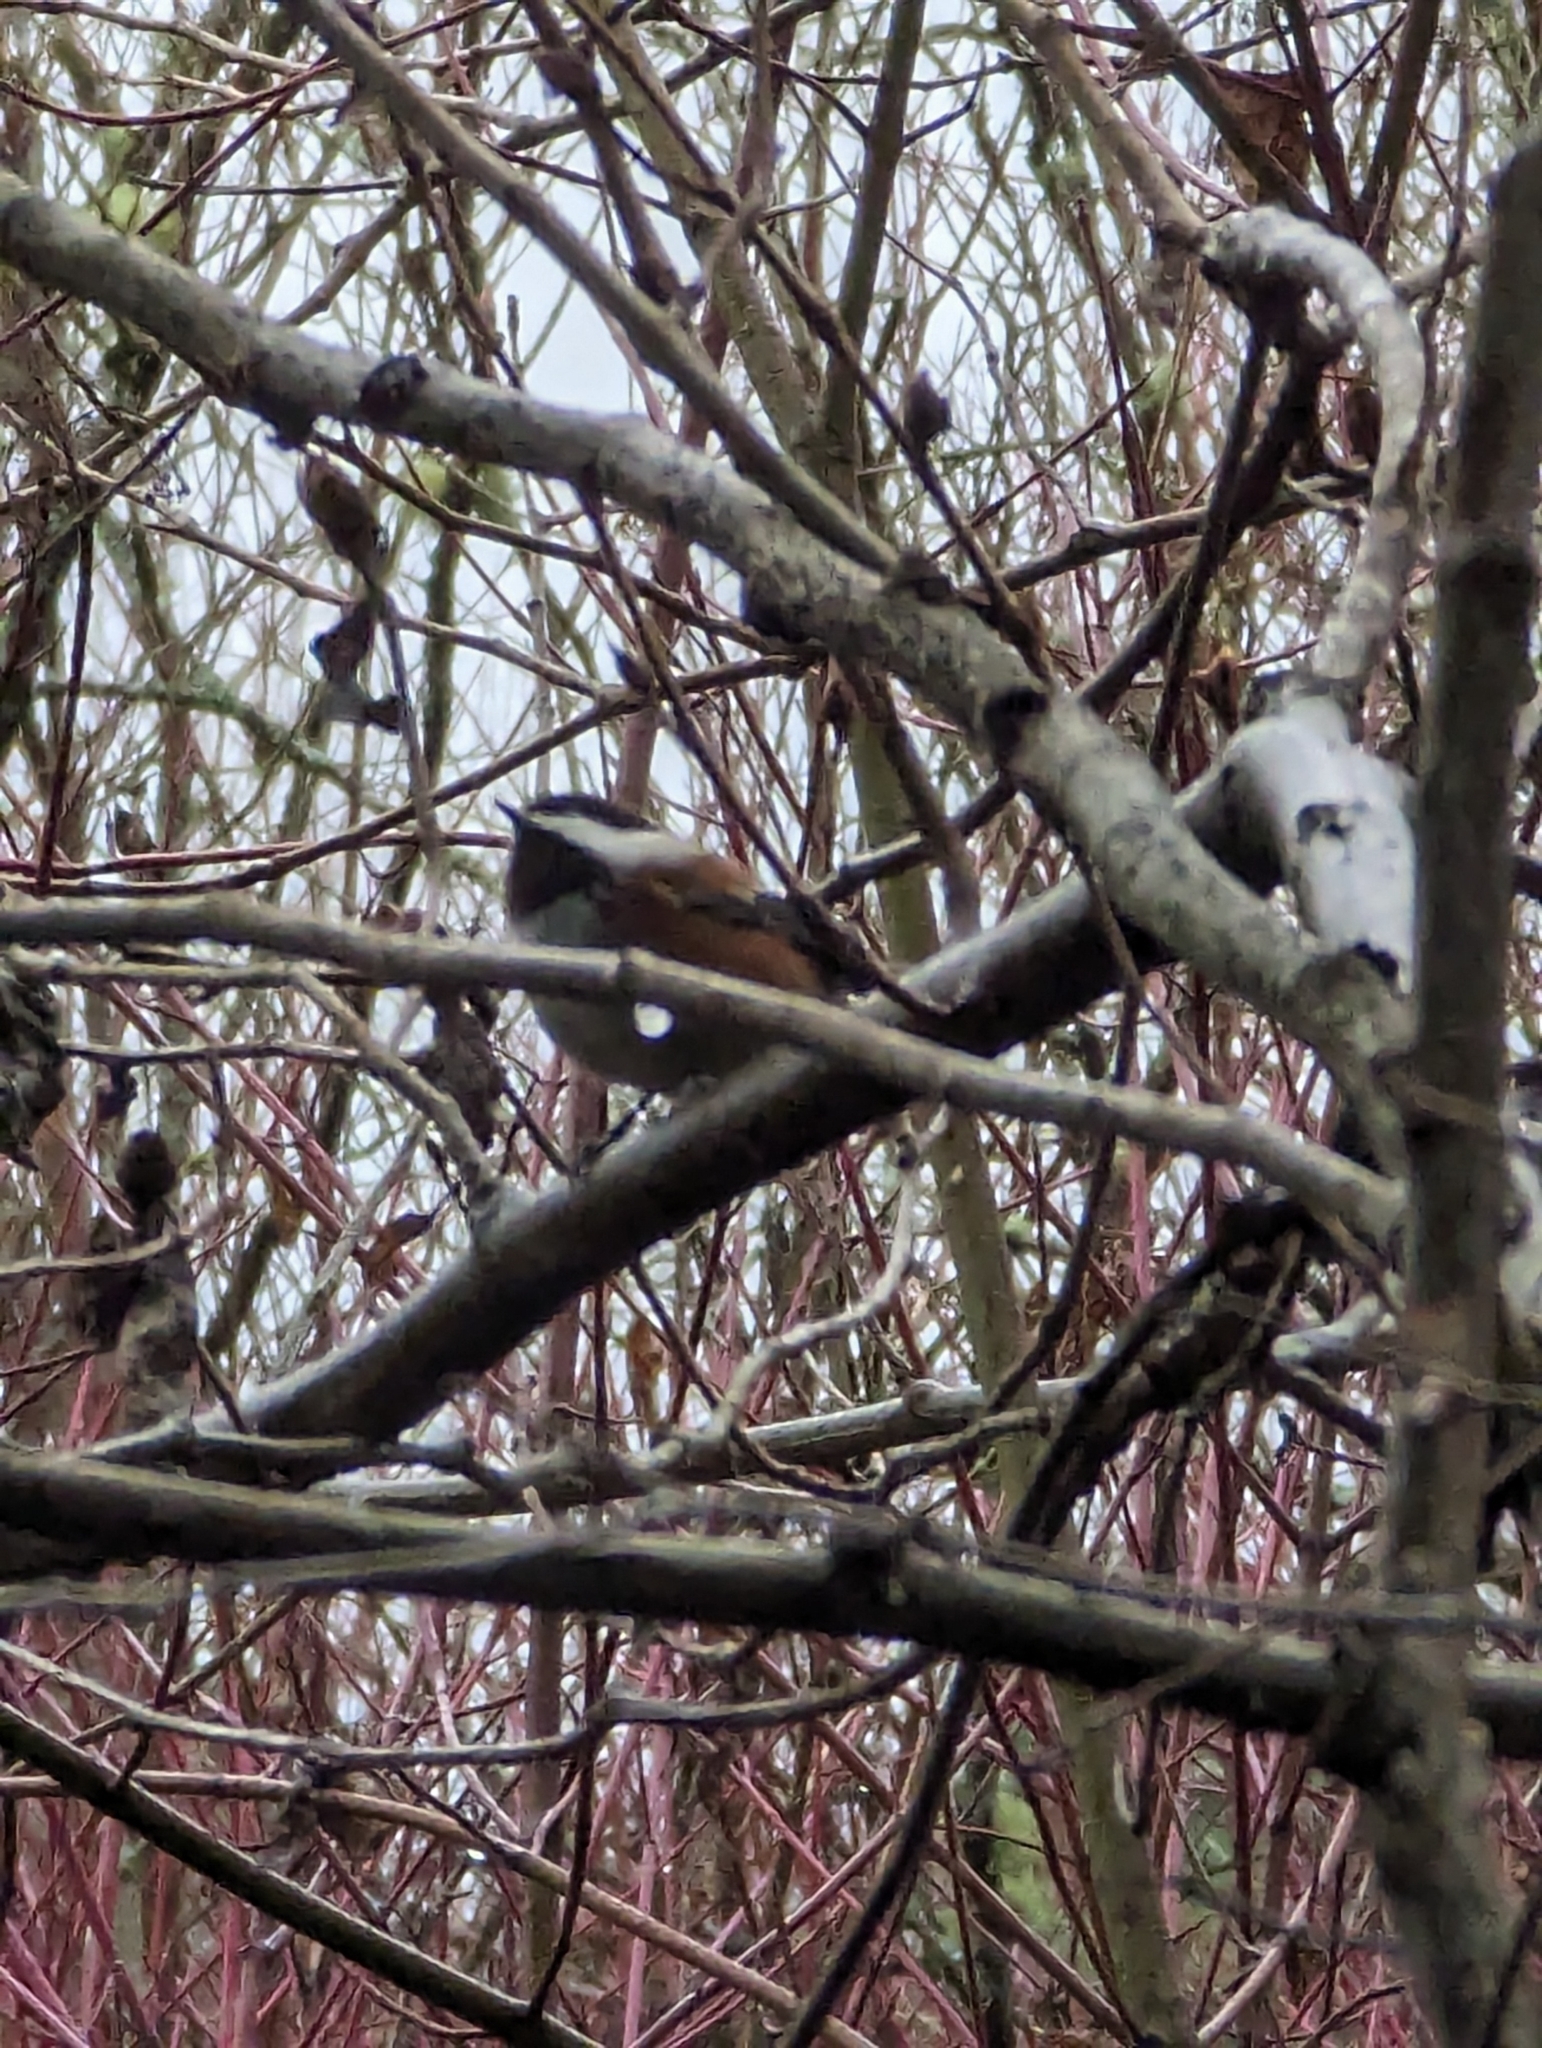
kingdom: Animalia
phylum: Chordata
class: Aves
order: Passeriformes
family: Paridae
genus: Poecile
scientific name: Poecile rufescens
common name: Chestnut-backed chickadee
